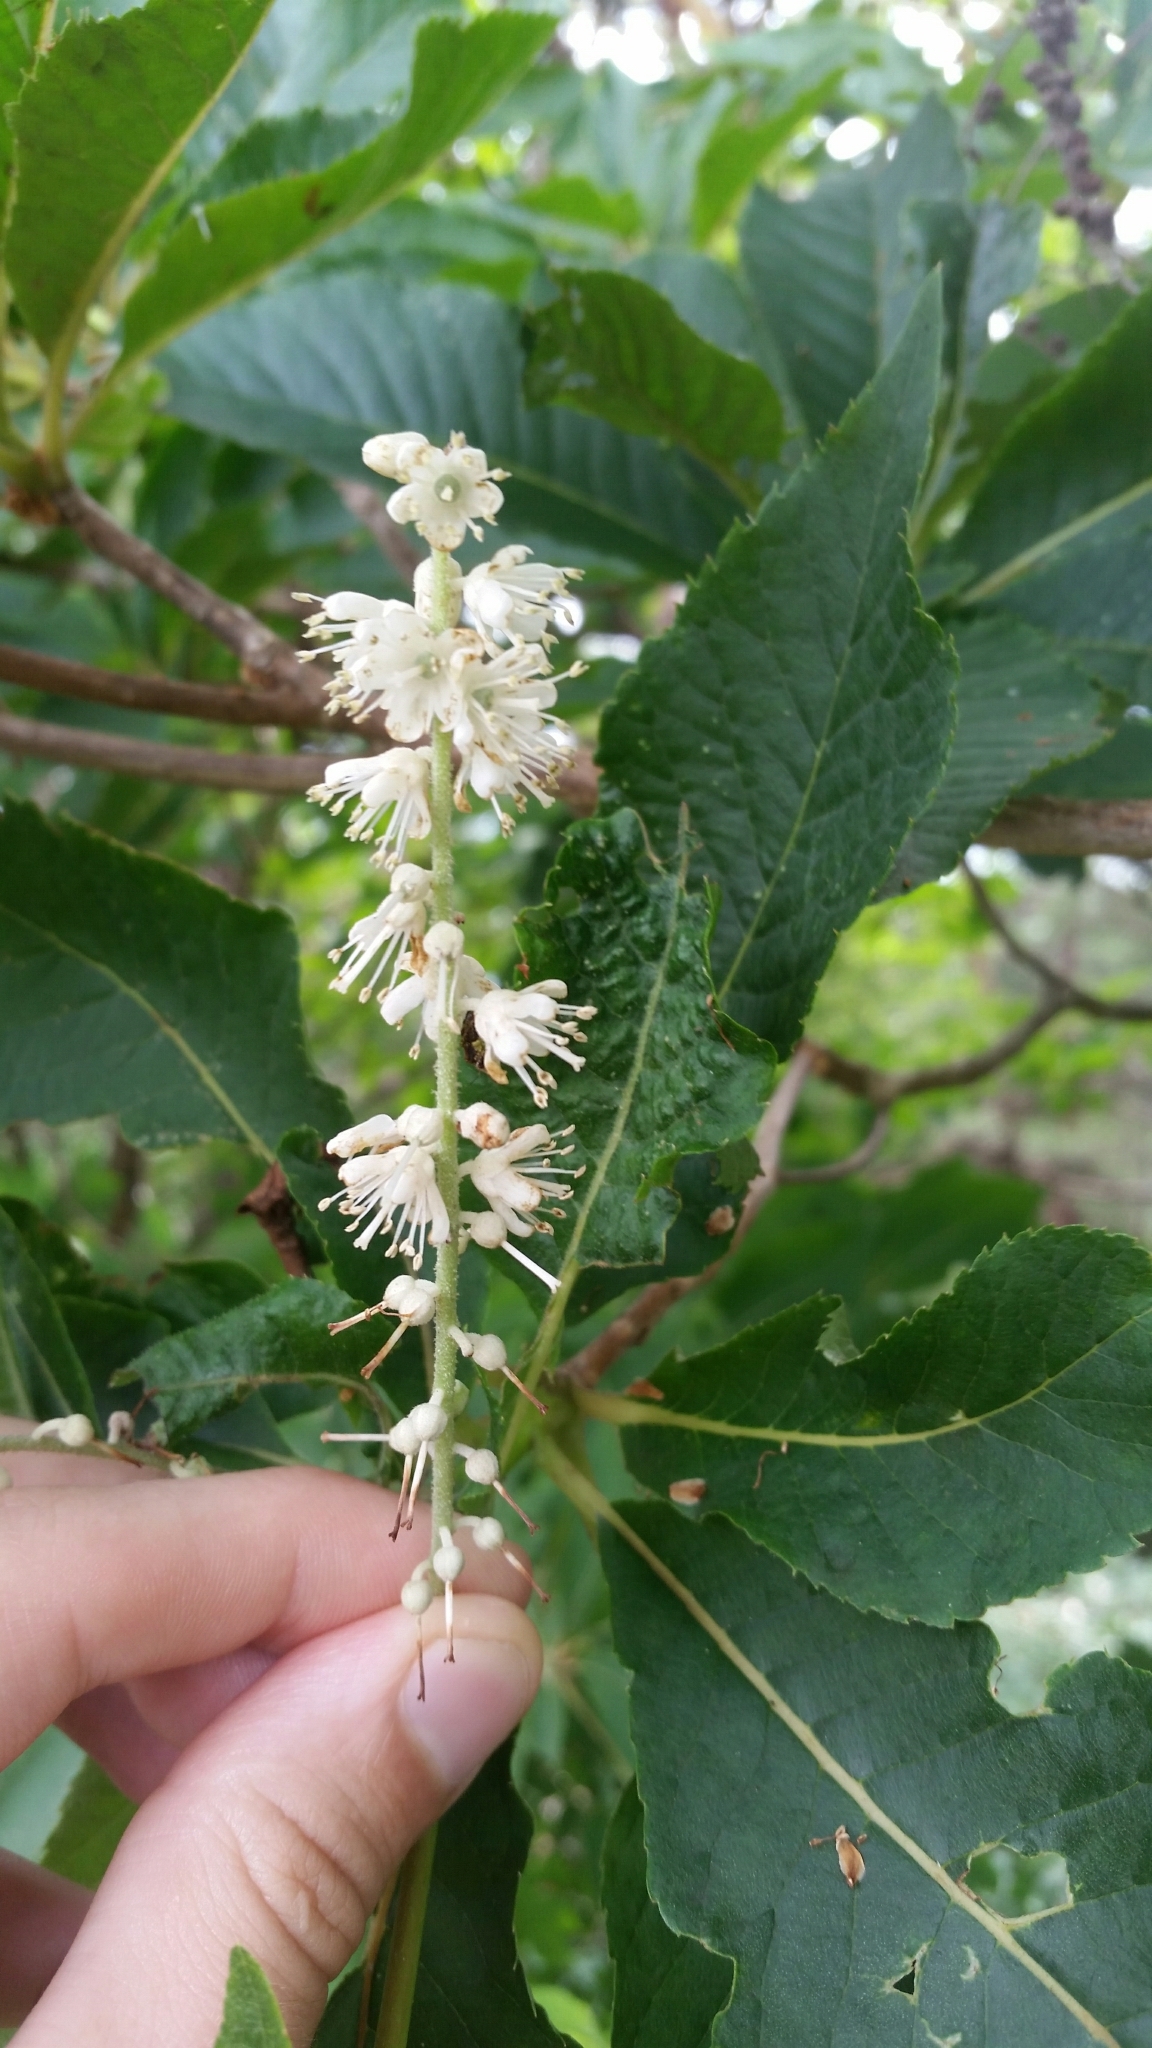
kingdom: Plantae
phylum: Tracheophyta
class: Magnoliopsida
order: Ericales
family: Clethraceae
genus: Clethra
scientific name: Clethra barbinervis
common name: Japanese clethra
